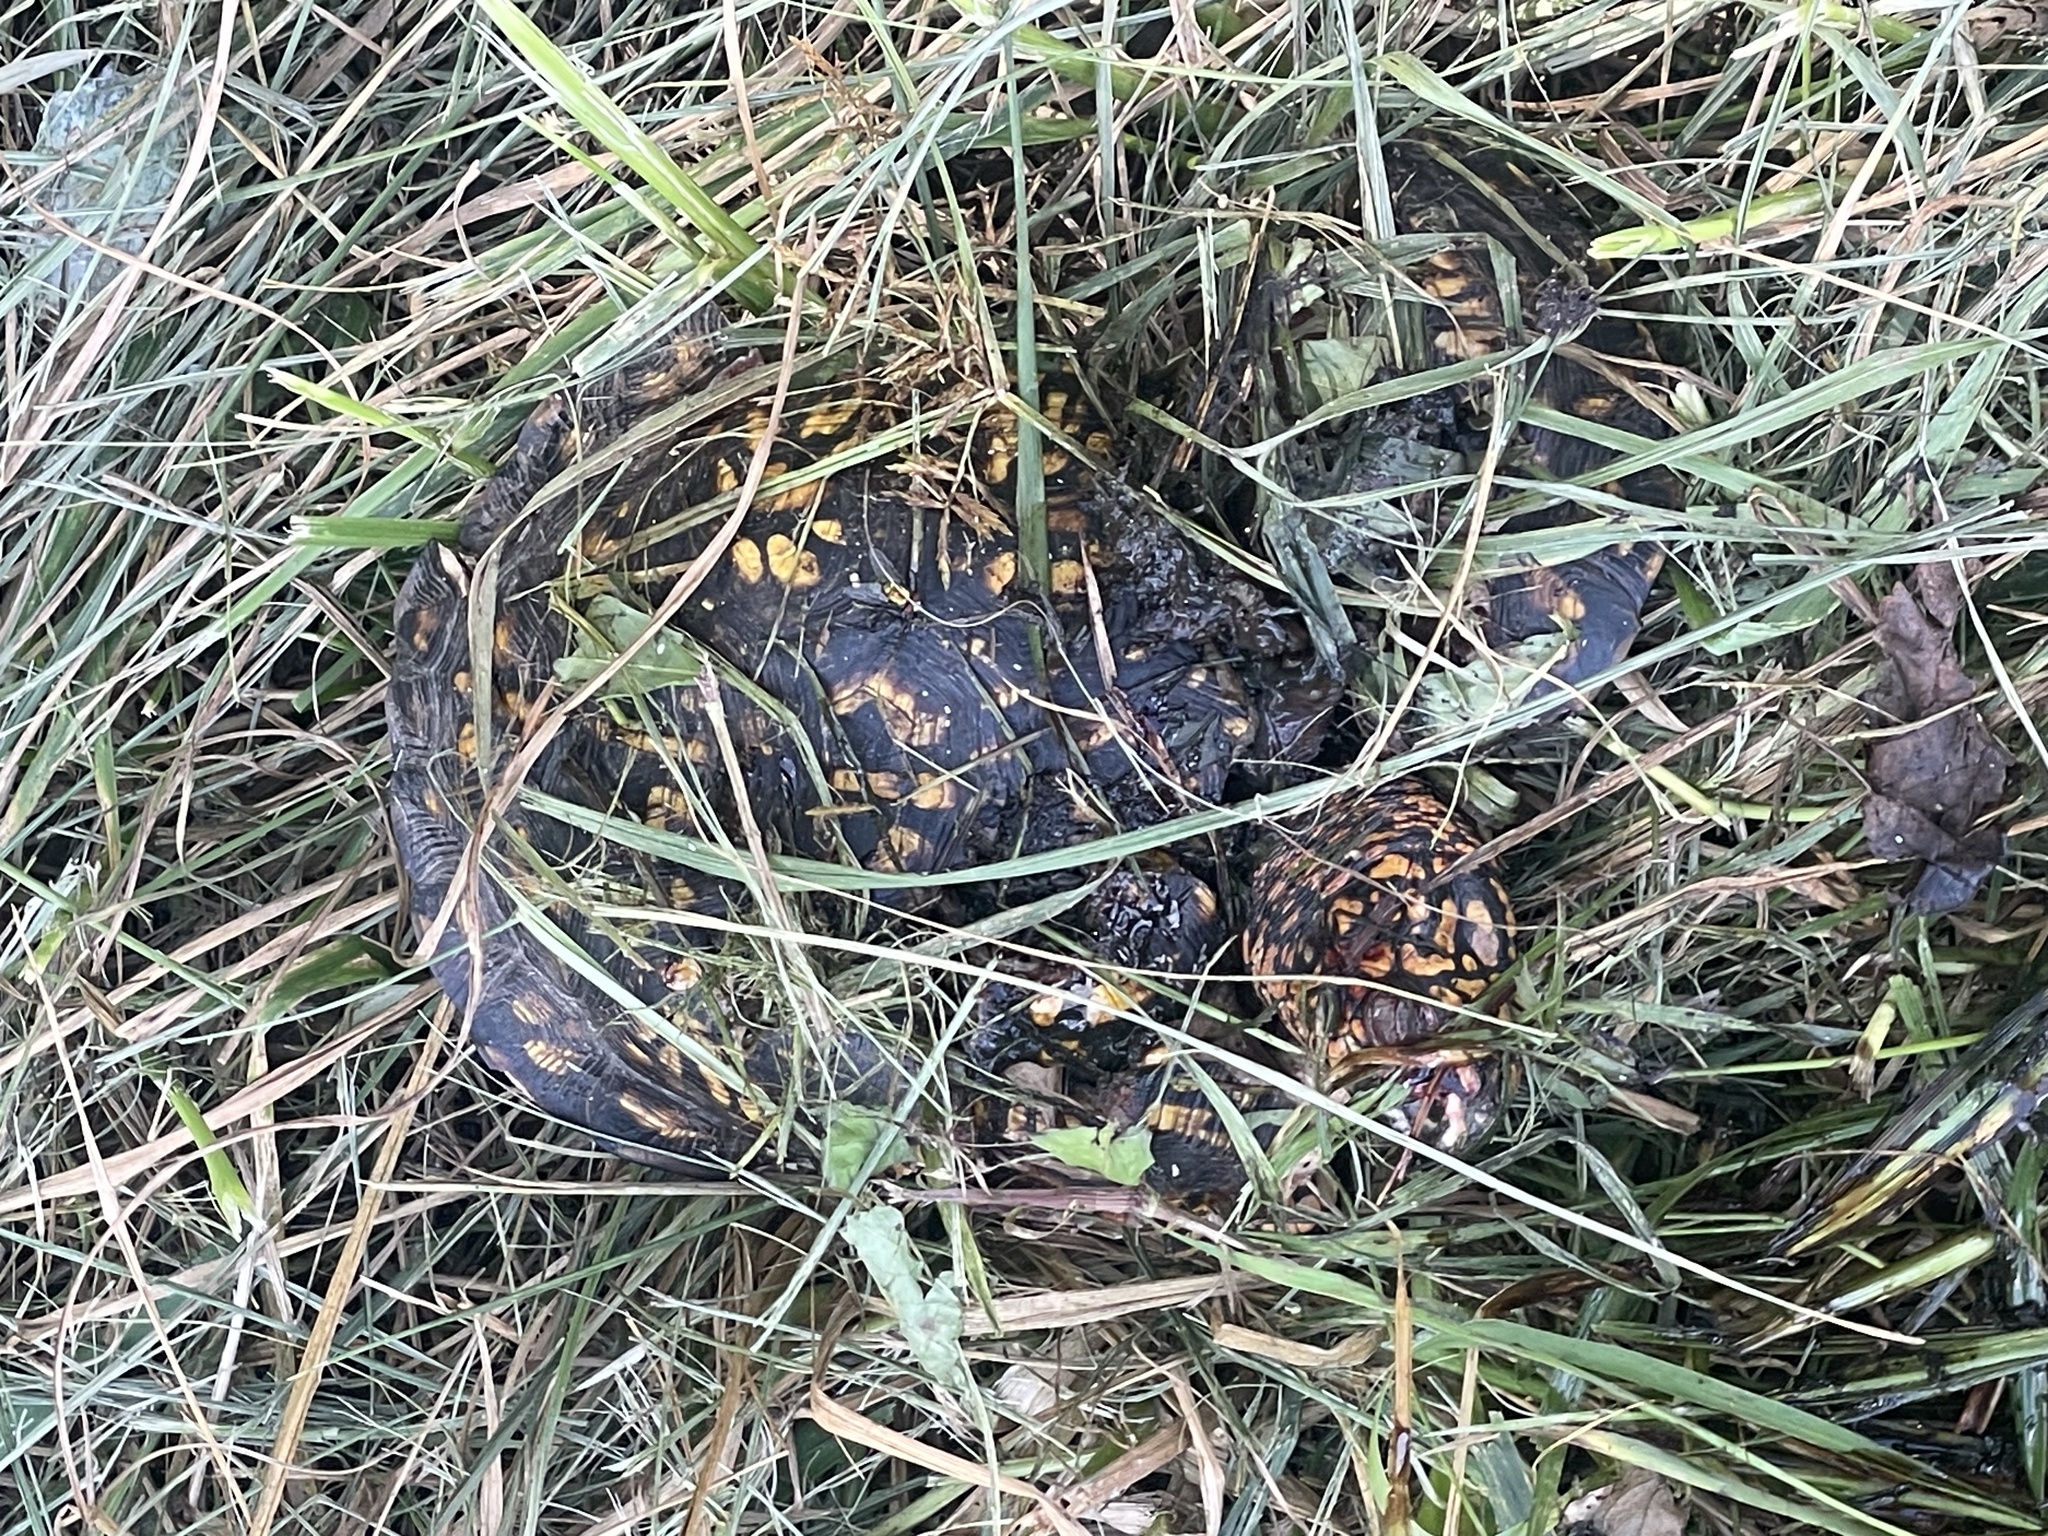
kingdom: Animalia
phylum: Chordata
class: Testudines
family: Emydidae
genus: Terrapene
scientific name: Terrapene carolina
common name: Common box turtle
